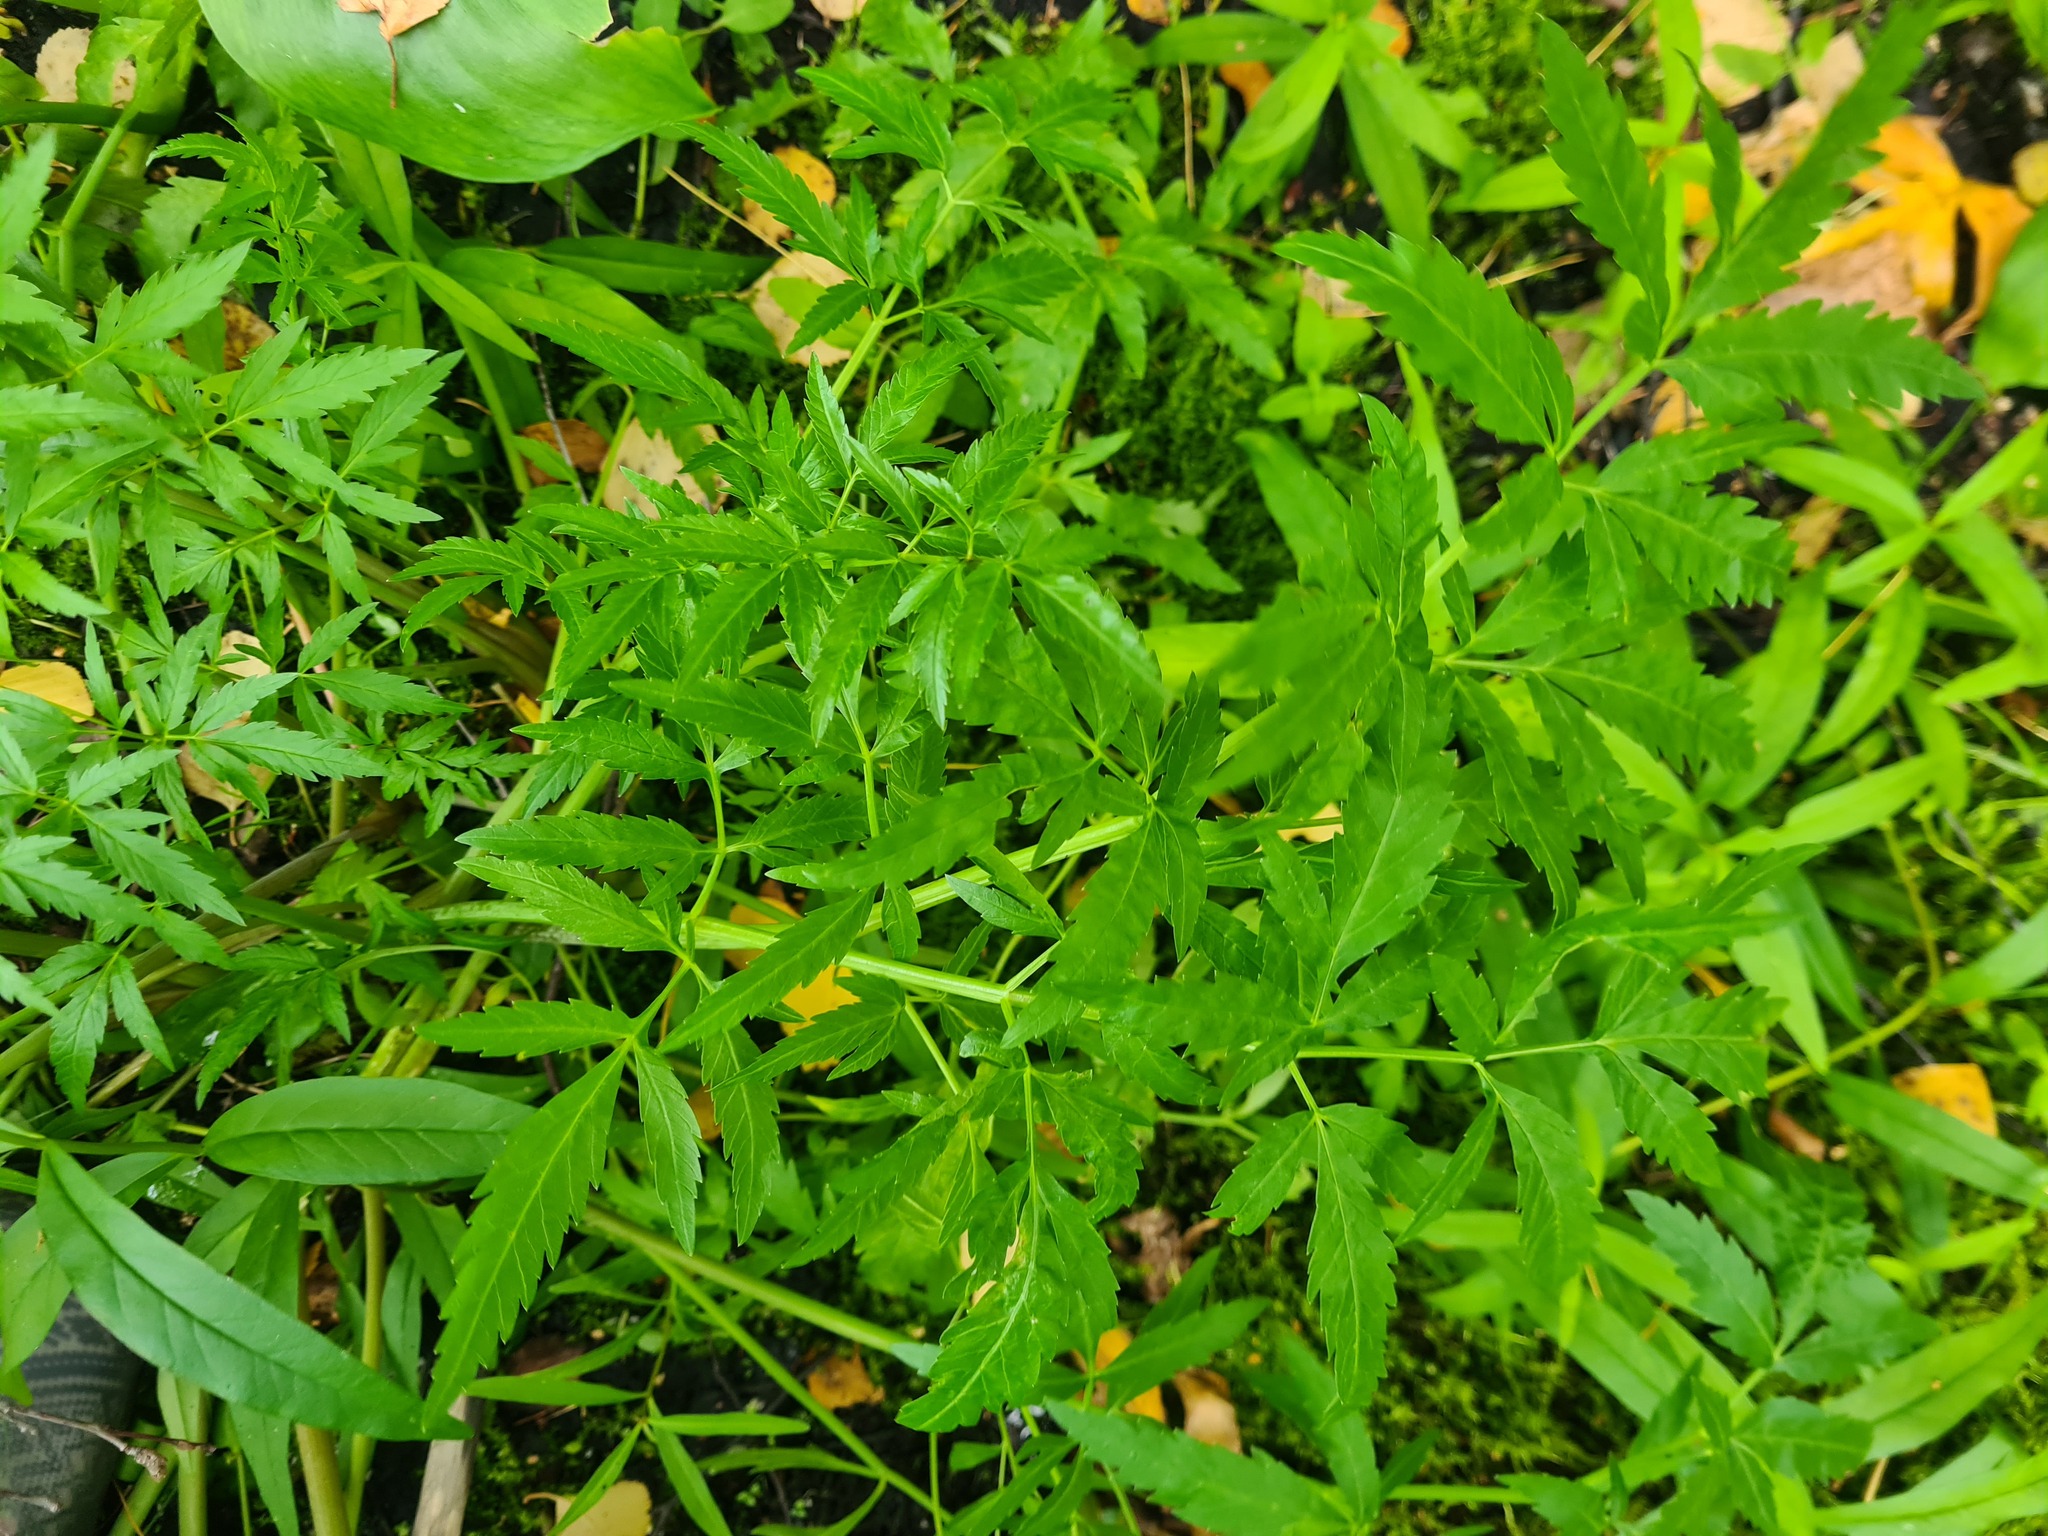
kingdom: Plantae
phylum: Tracheophyta
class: Magnoliopsida
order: Apiales
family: Apiaceae
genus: Cicuta
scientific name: Cicuta virosa
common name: Cowbane
